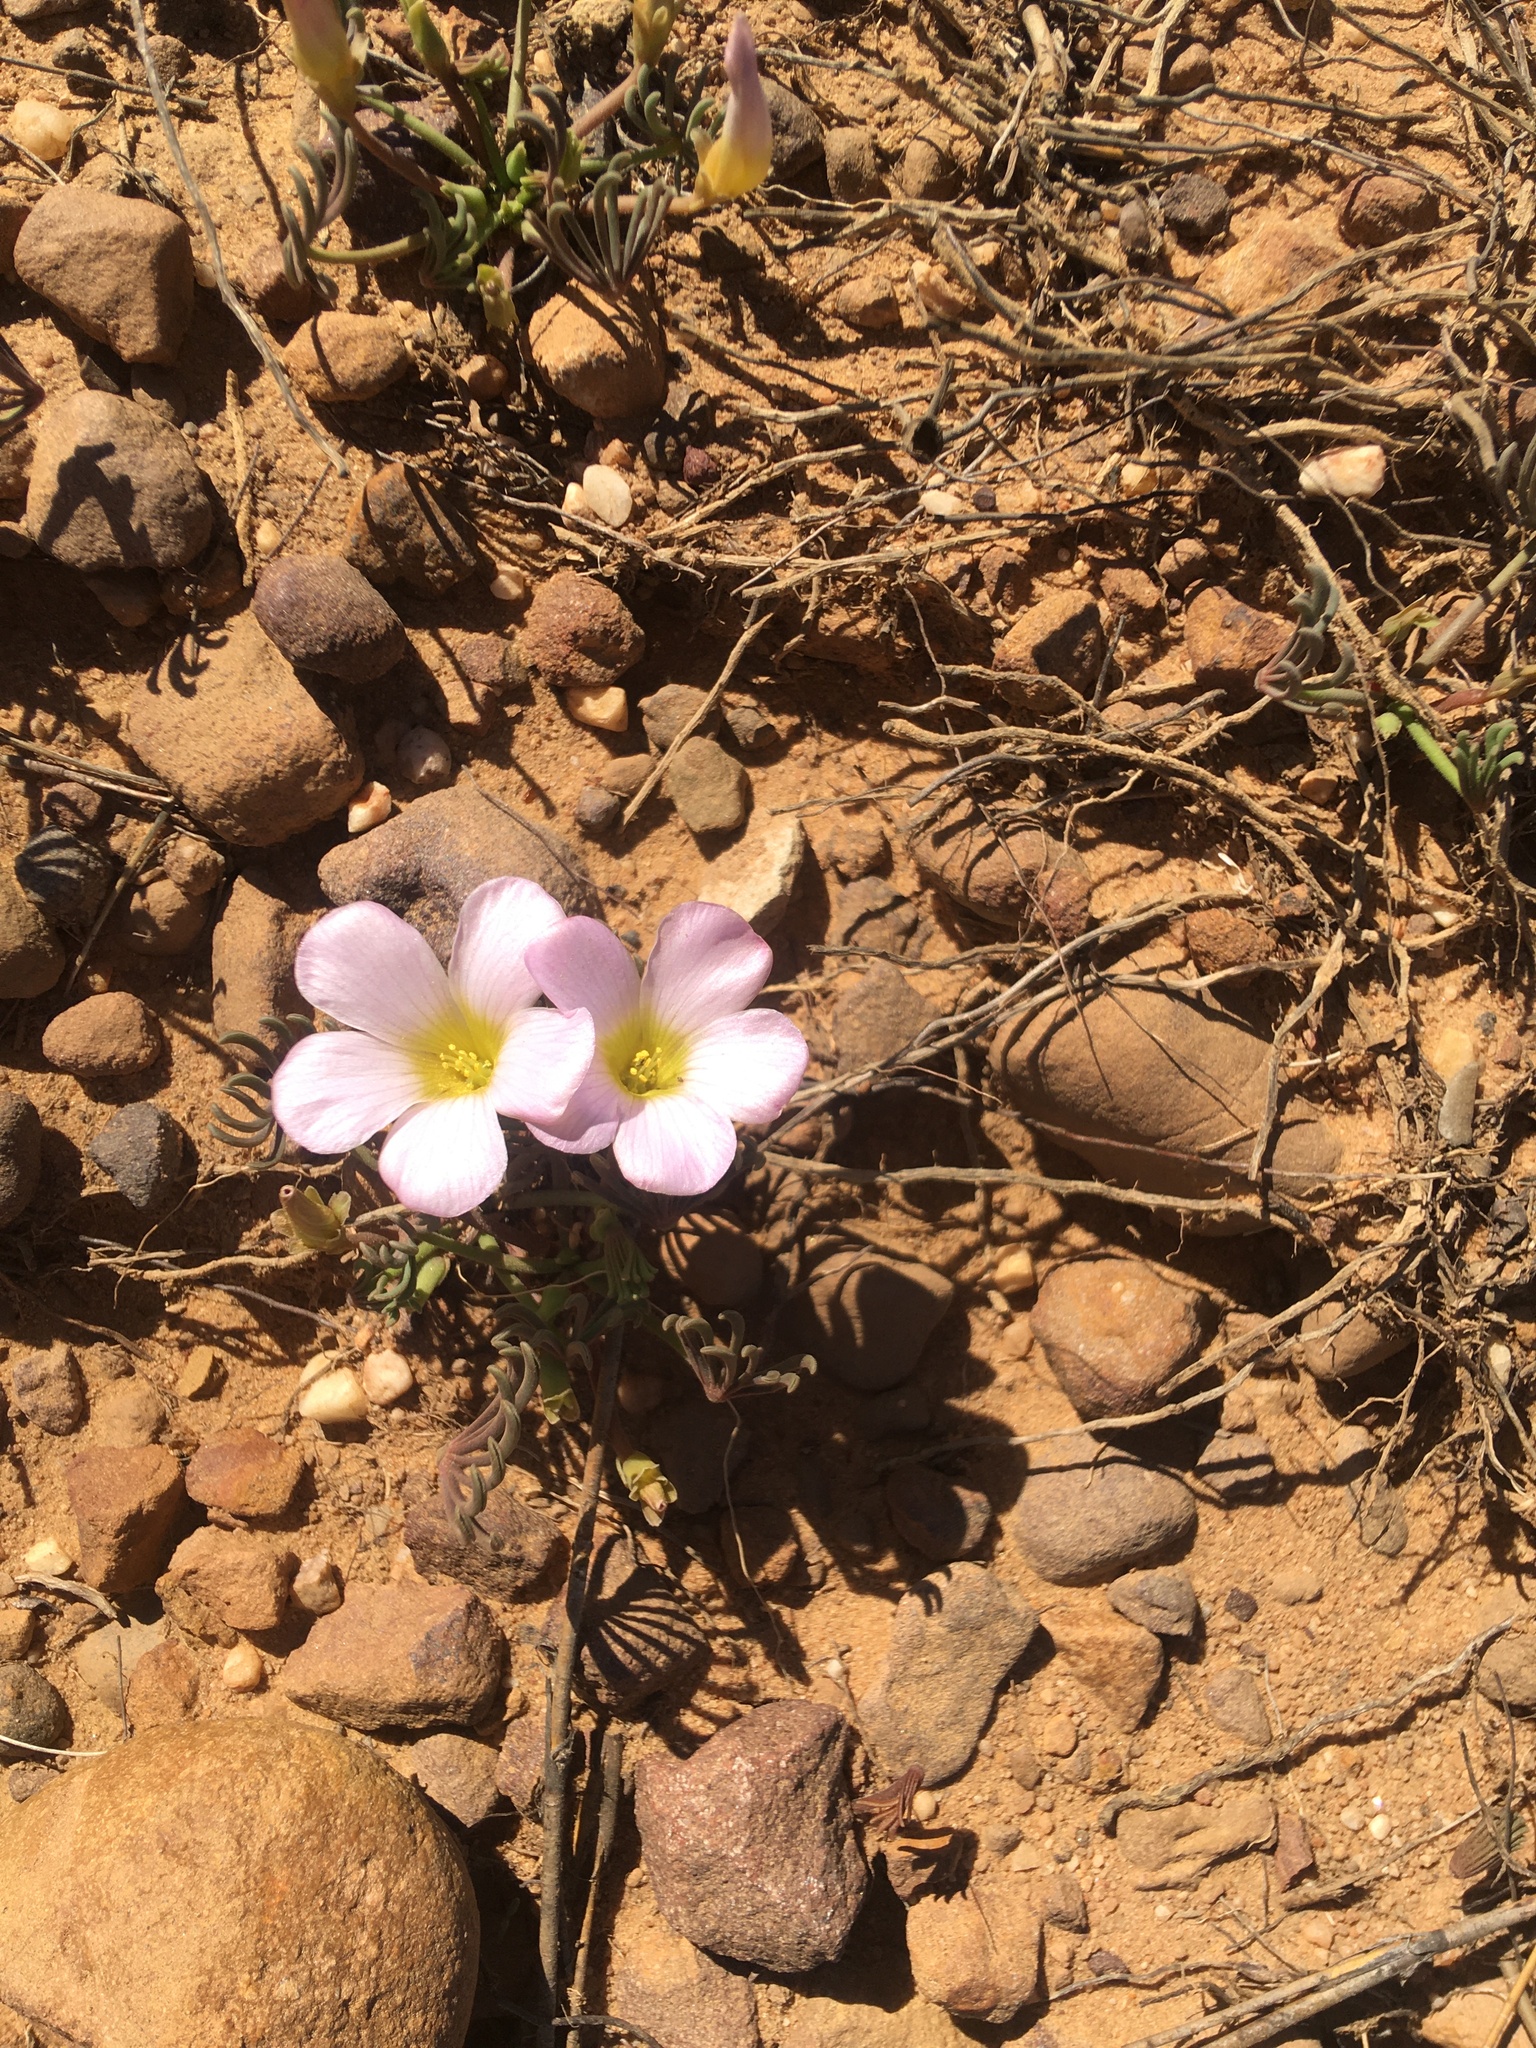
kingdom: Plantae
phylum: Tracheophyta
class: Magnoliopsida
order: Oxalidales
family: Oxalidaceae
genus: Oxalis
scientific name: Oxalis flava
